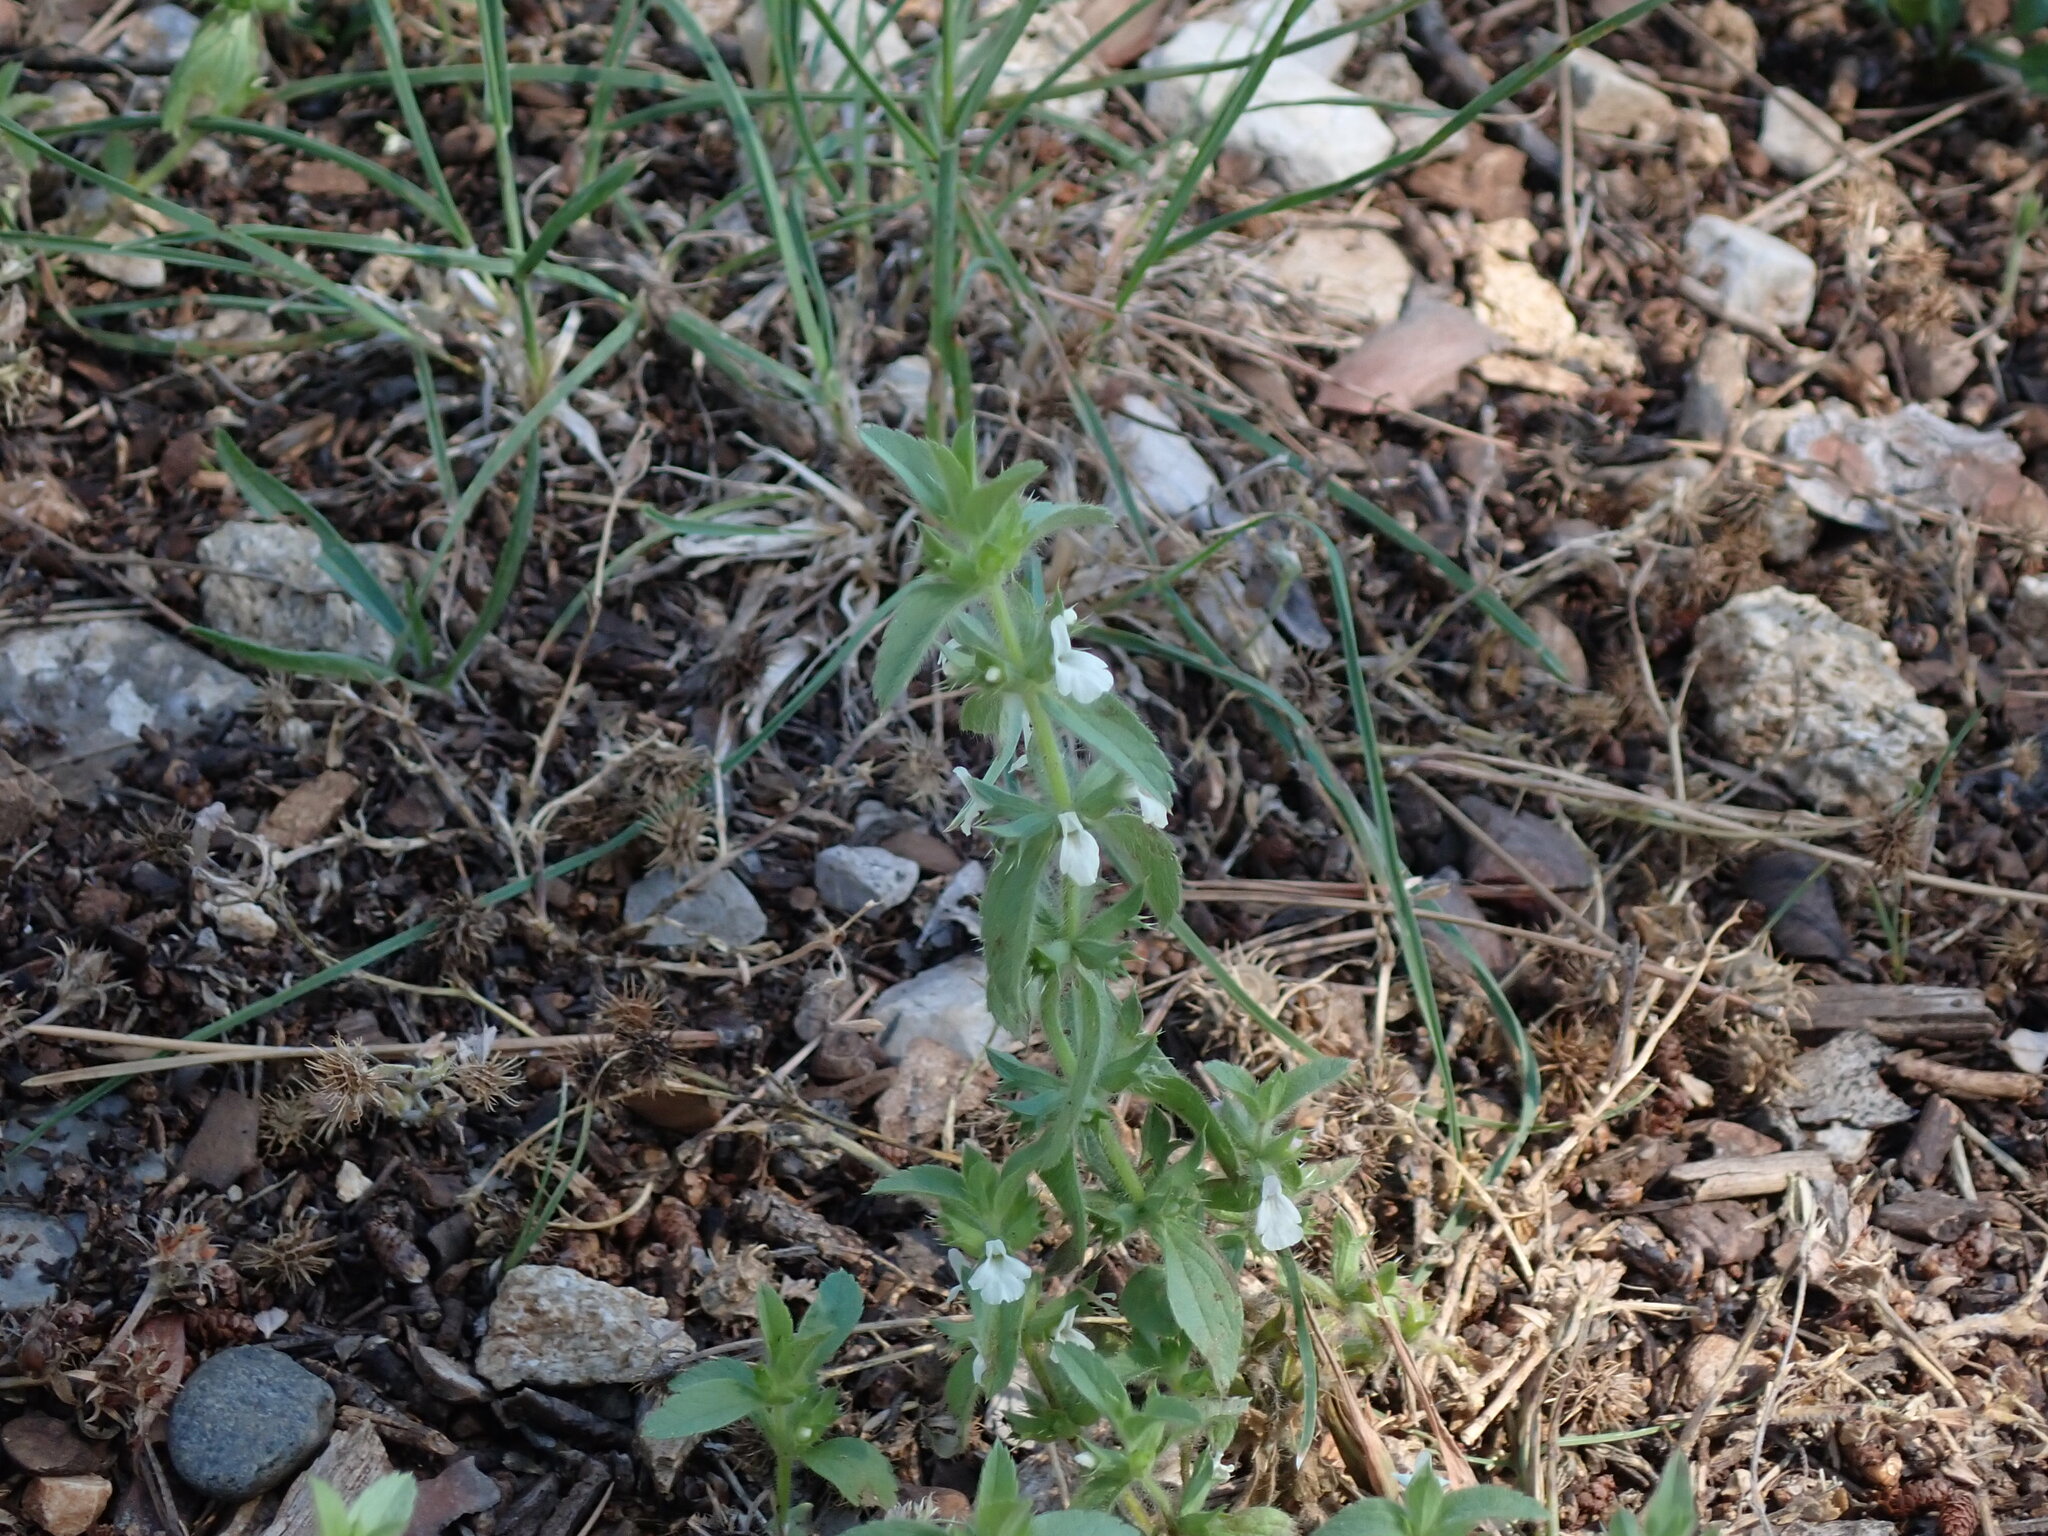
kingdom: Plantae
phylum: Tracheophyta
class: Magnoliopsida
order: Lamiales
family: Lamiaceae
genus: Sideritis
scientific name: Sideritis romana
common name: Simplebeak ironwort
